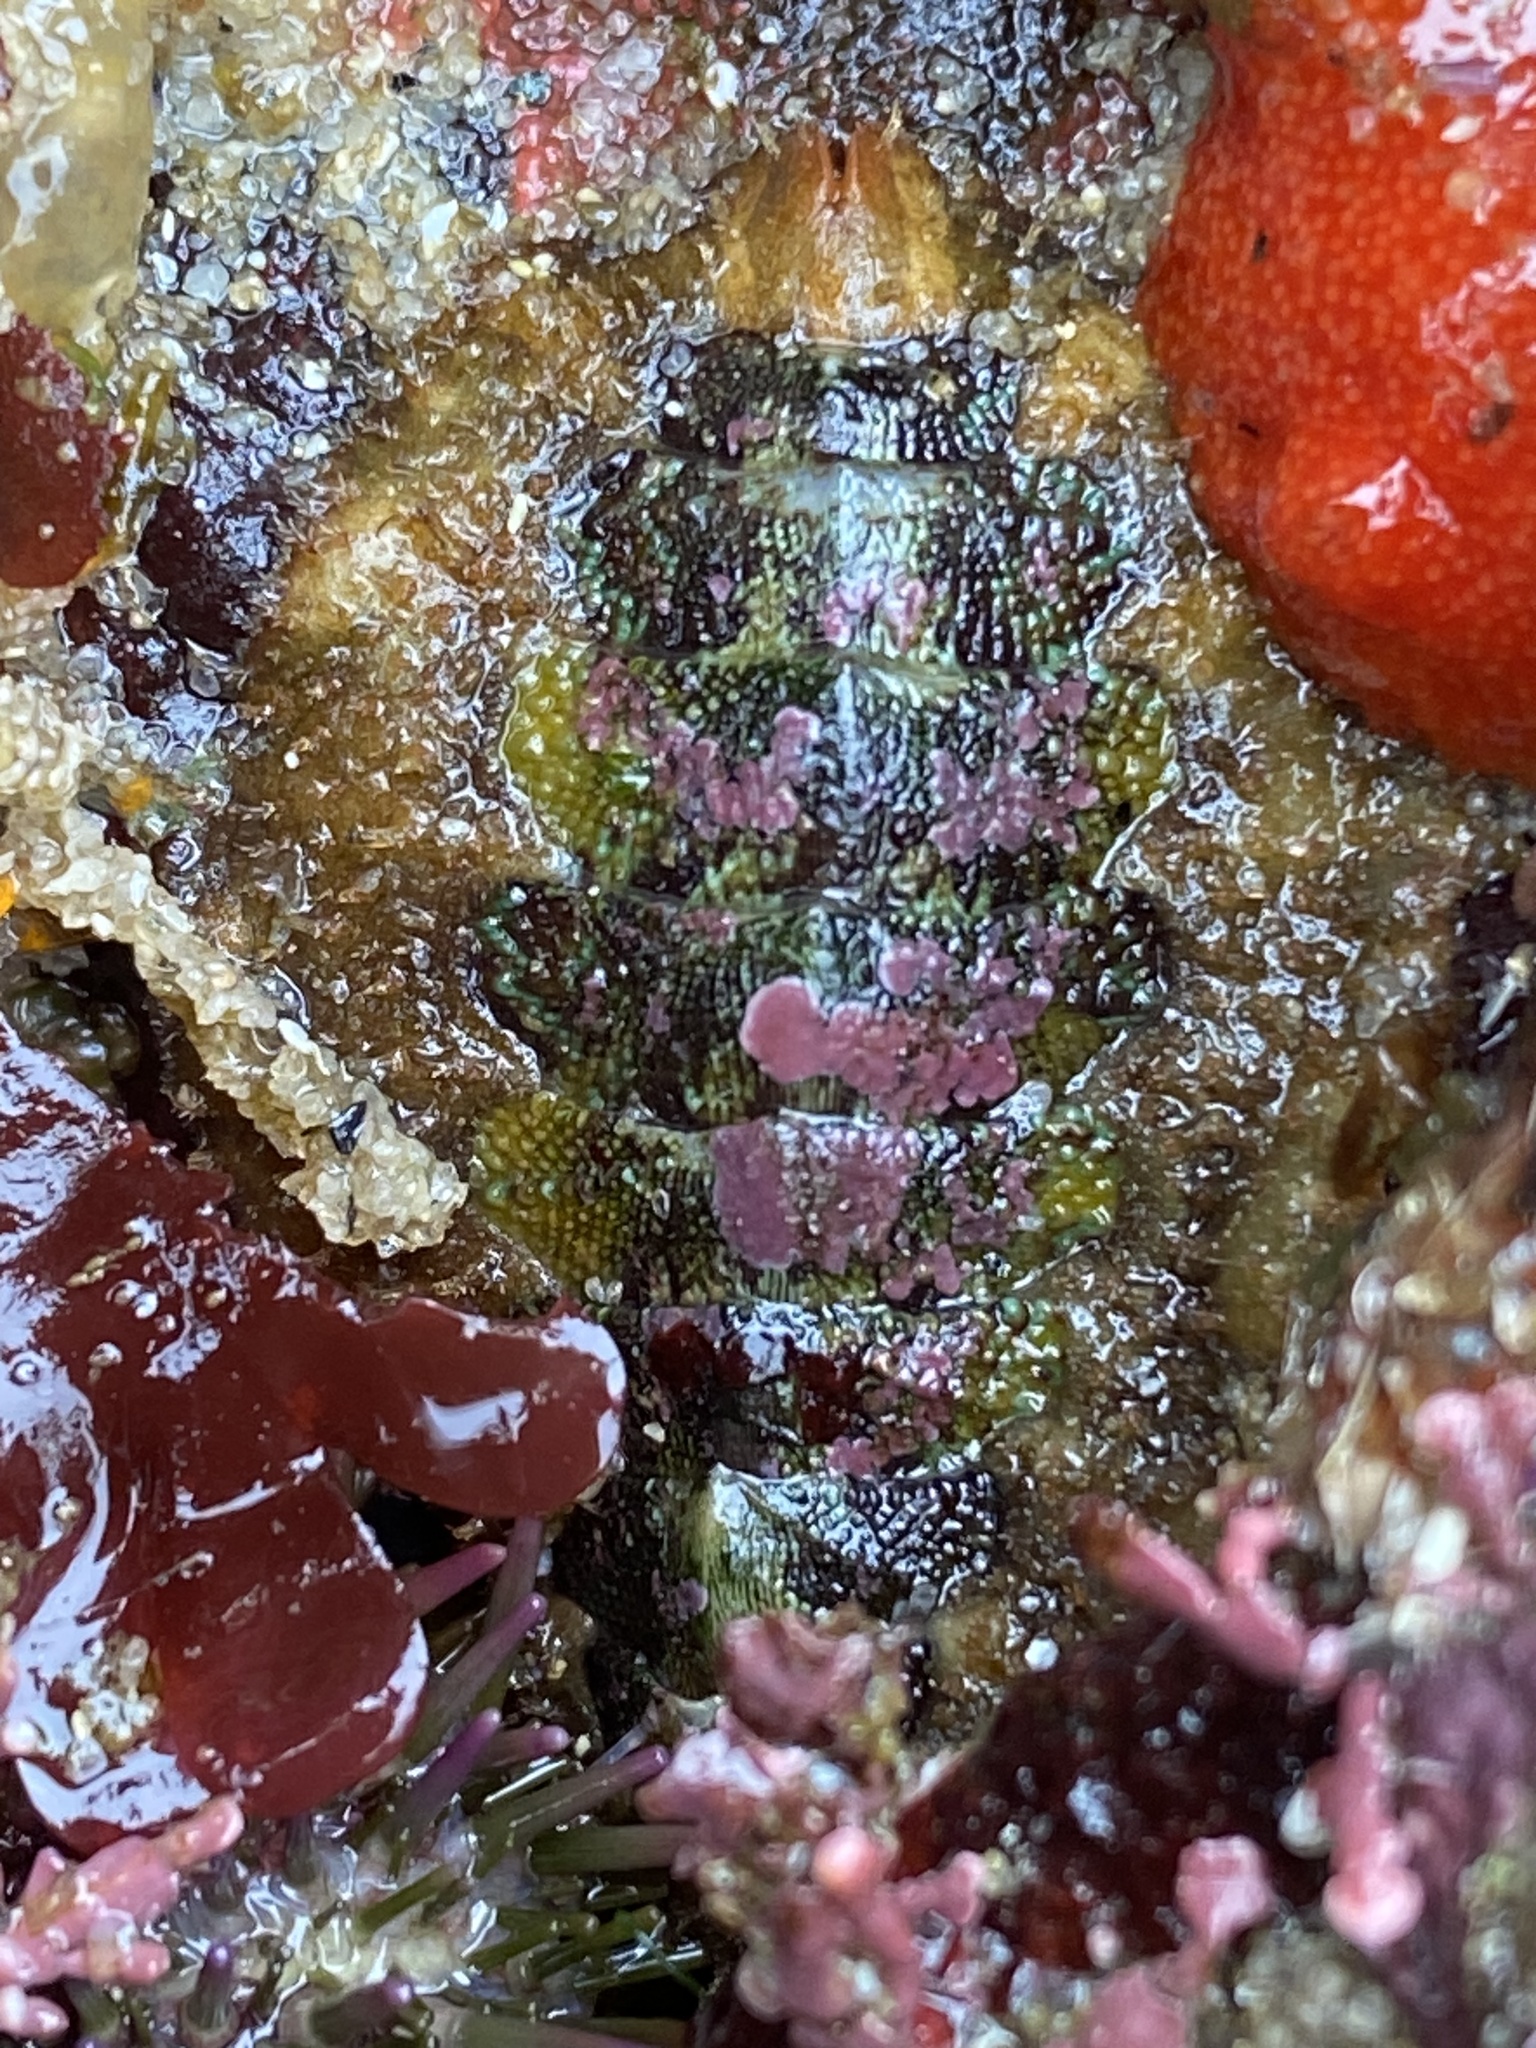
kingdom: Animalia
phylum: Mollusca
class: Polyplacophora
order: Chitonida
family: Mopaliidae
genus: Mopalia
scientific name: Mopalia ciliata
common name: Hairy chiton
